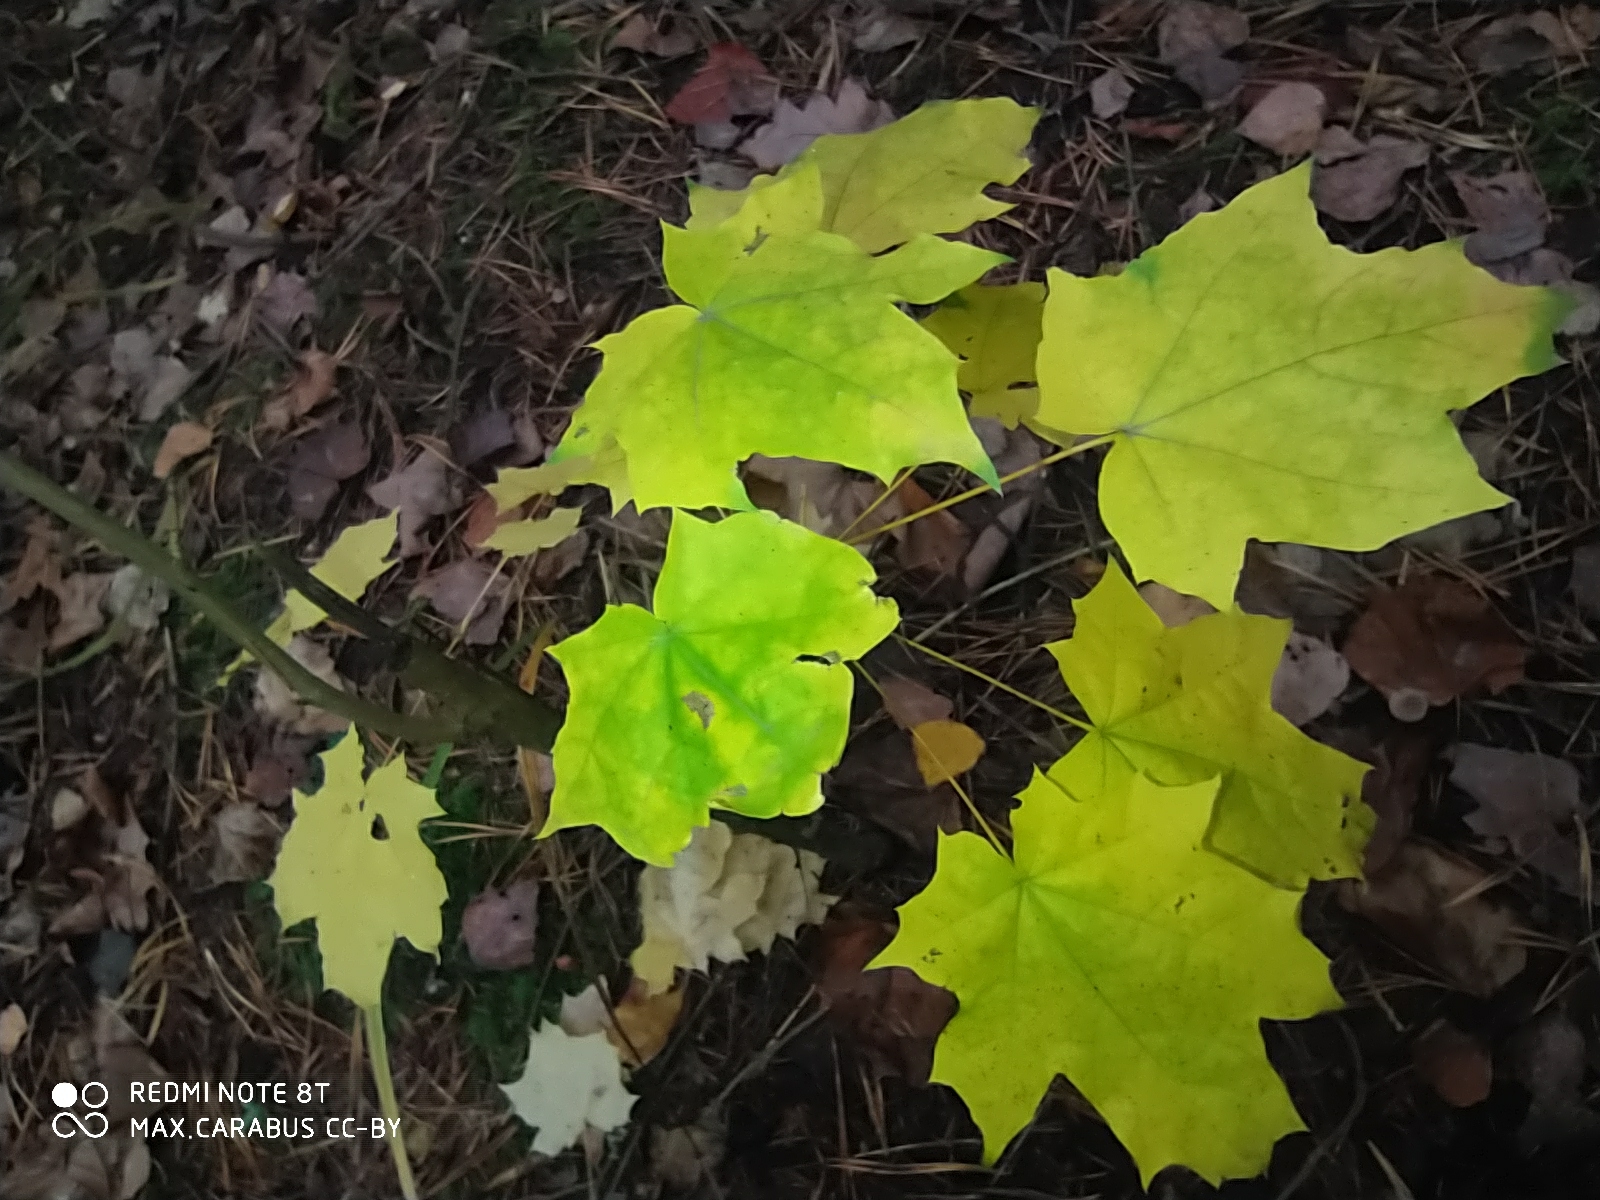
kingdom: Plantae
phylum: Tracheophyta
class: Magnoliopsida
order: Sapindales
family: Sapindaceae
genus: Acer
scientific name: Acer platanoides
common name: Norway maple
